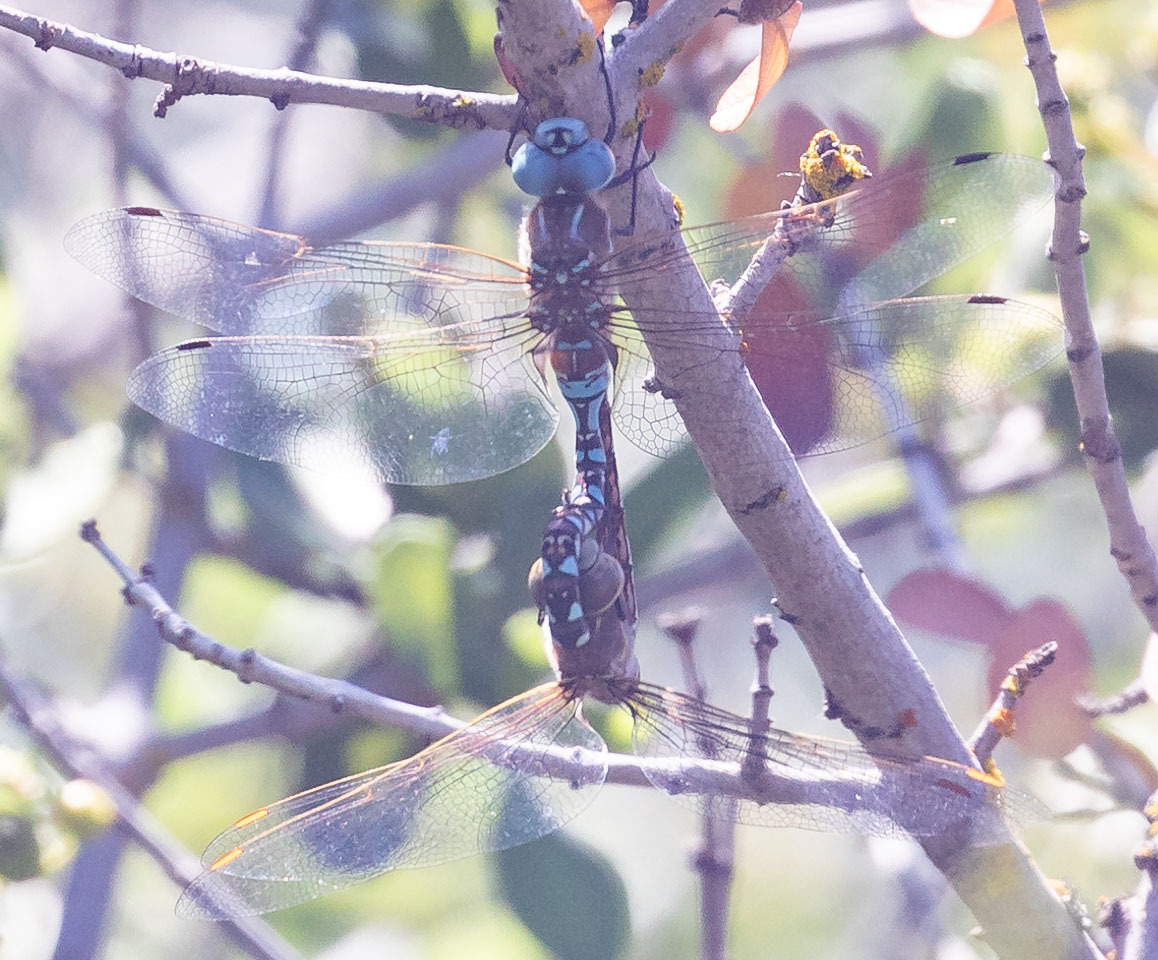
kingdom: Animalia
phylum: Arthropoda
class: Insecta
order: Odonata
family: Aeshnidae
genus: Rhionaeschna
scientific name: Rhionaeschna multicolor
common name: Blue-eyed darner
